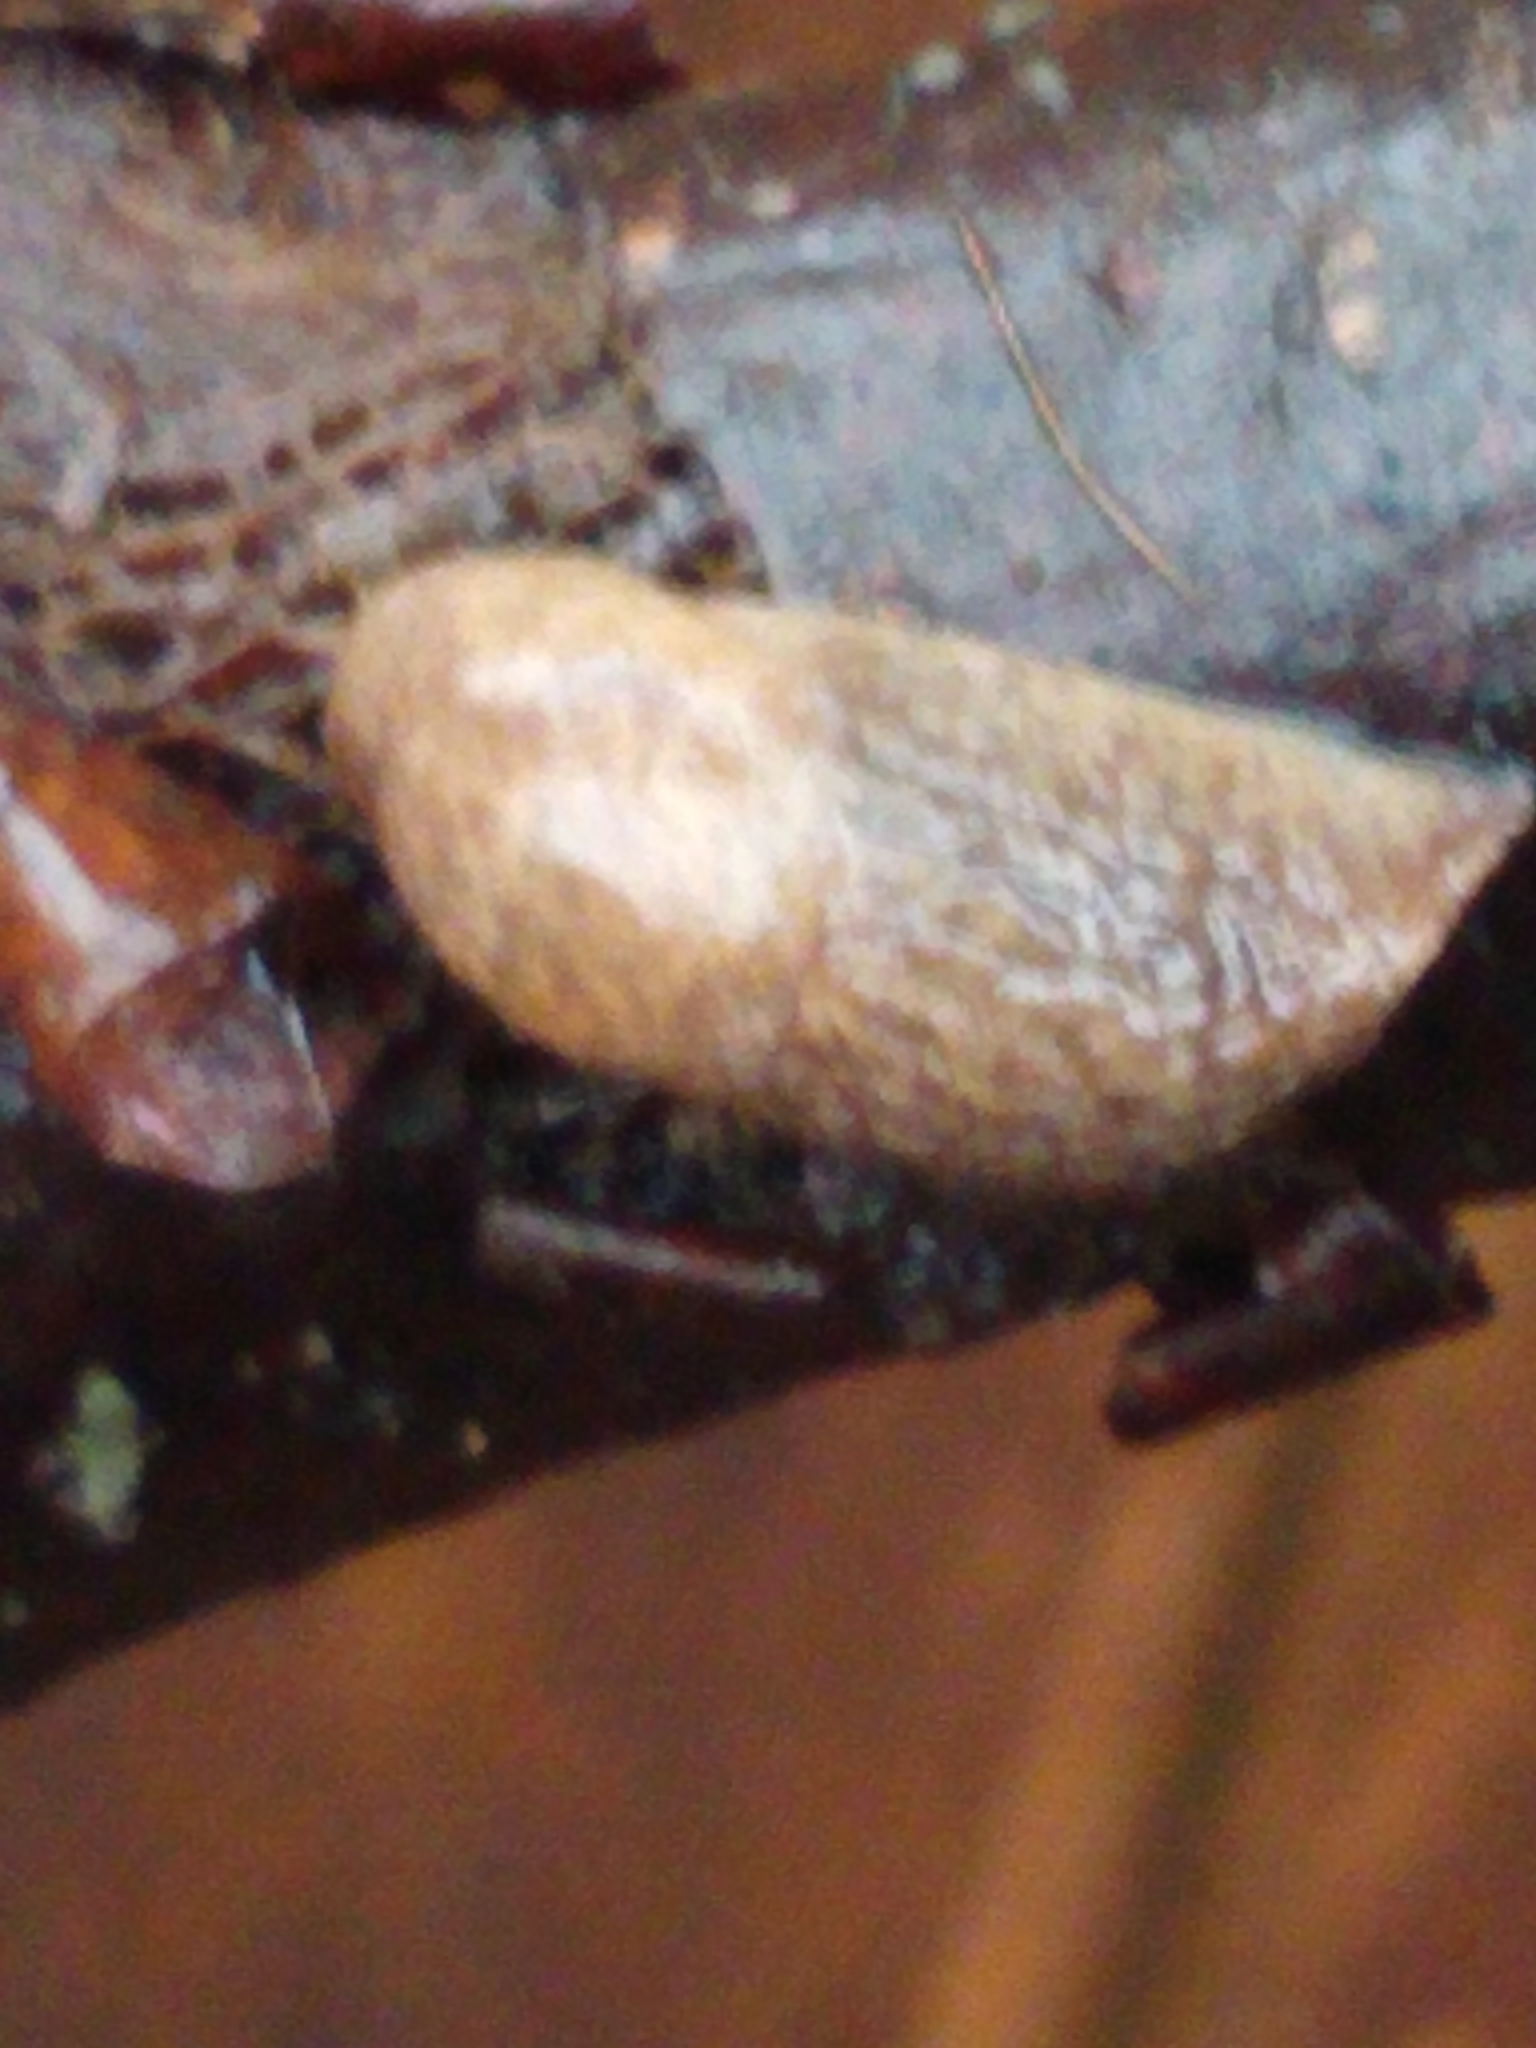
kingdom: Animalia
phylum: Mollusca
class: Gastropoda
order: Stylommatophora
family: Agriolimacidae
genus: Deroceras
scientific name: Deroceras reticulatum
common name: Gray field slug
